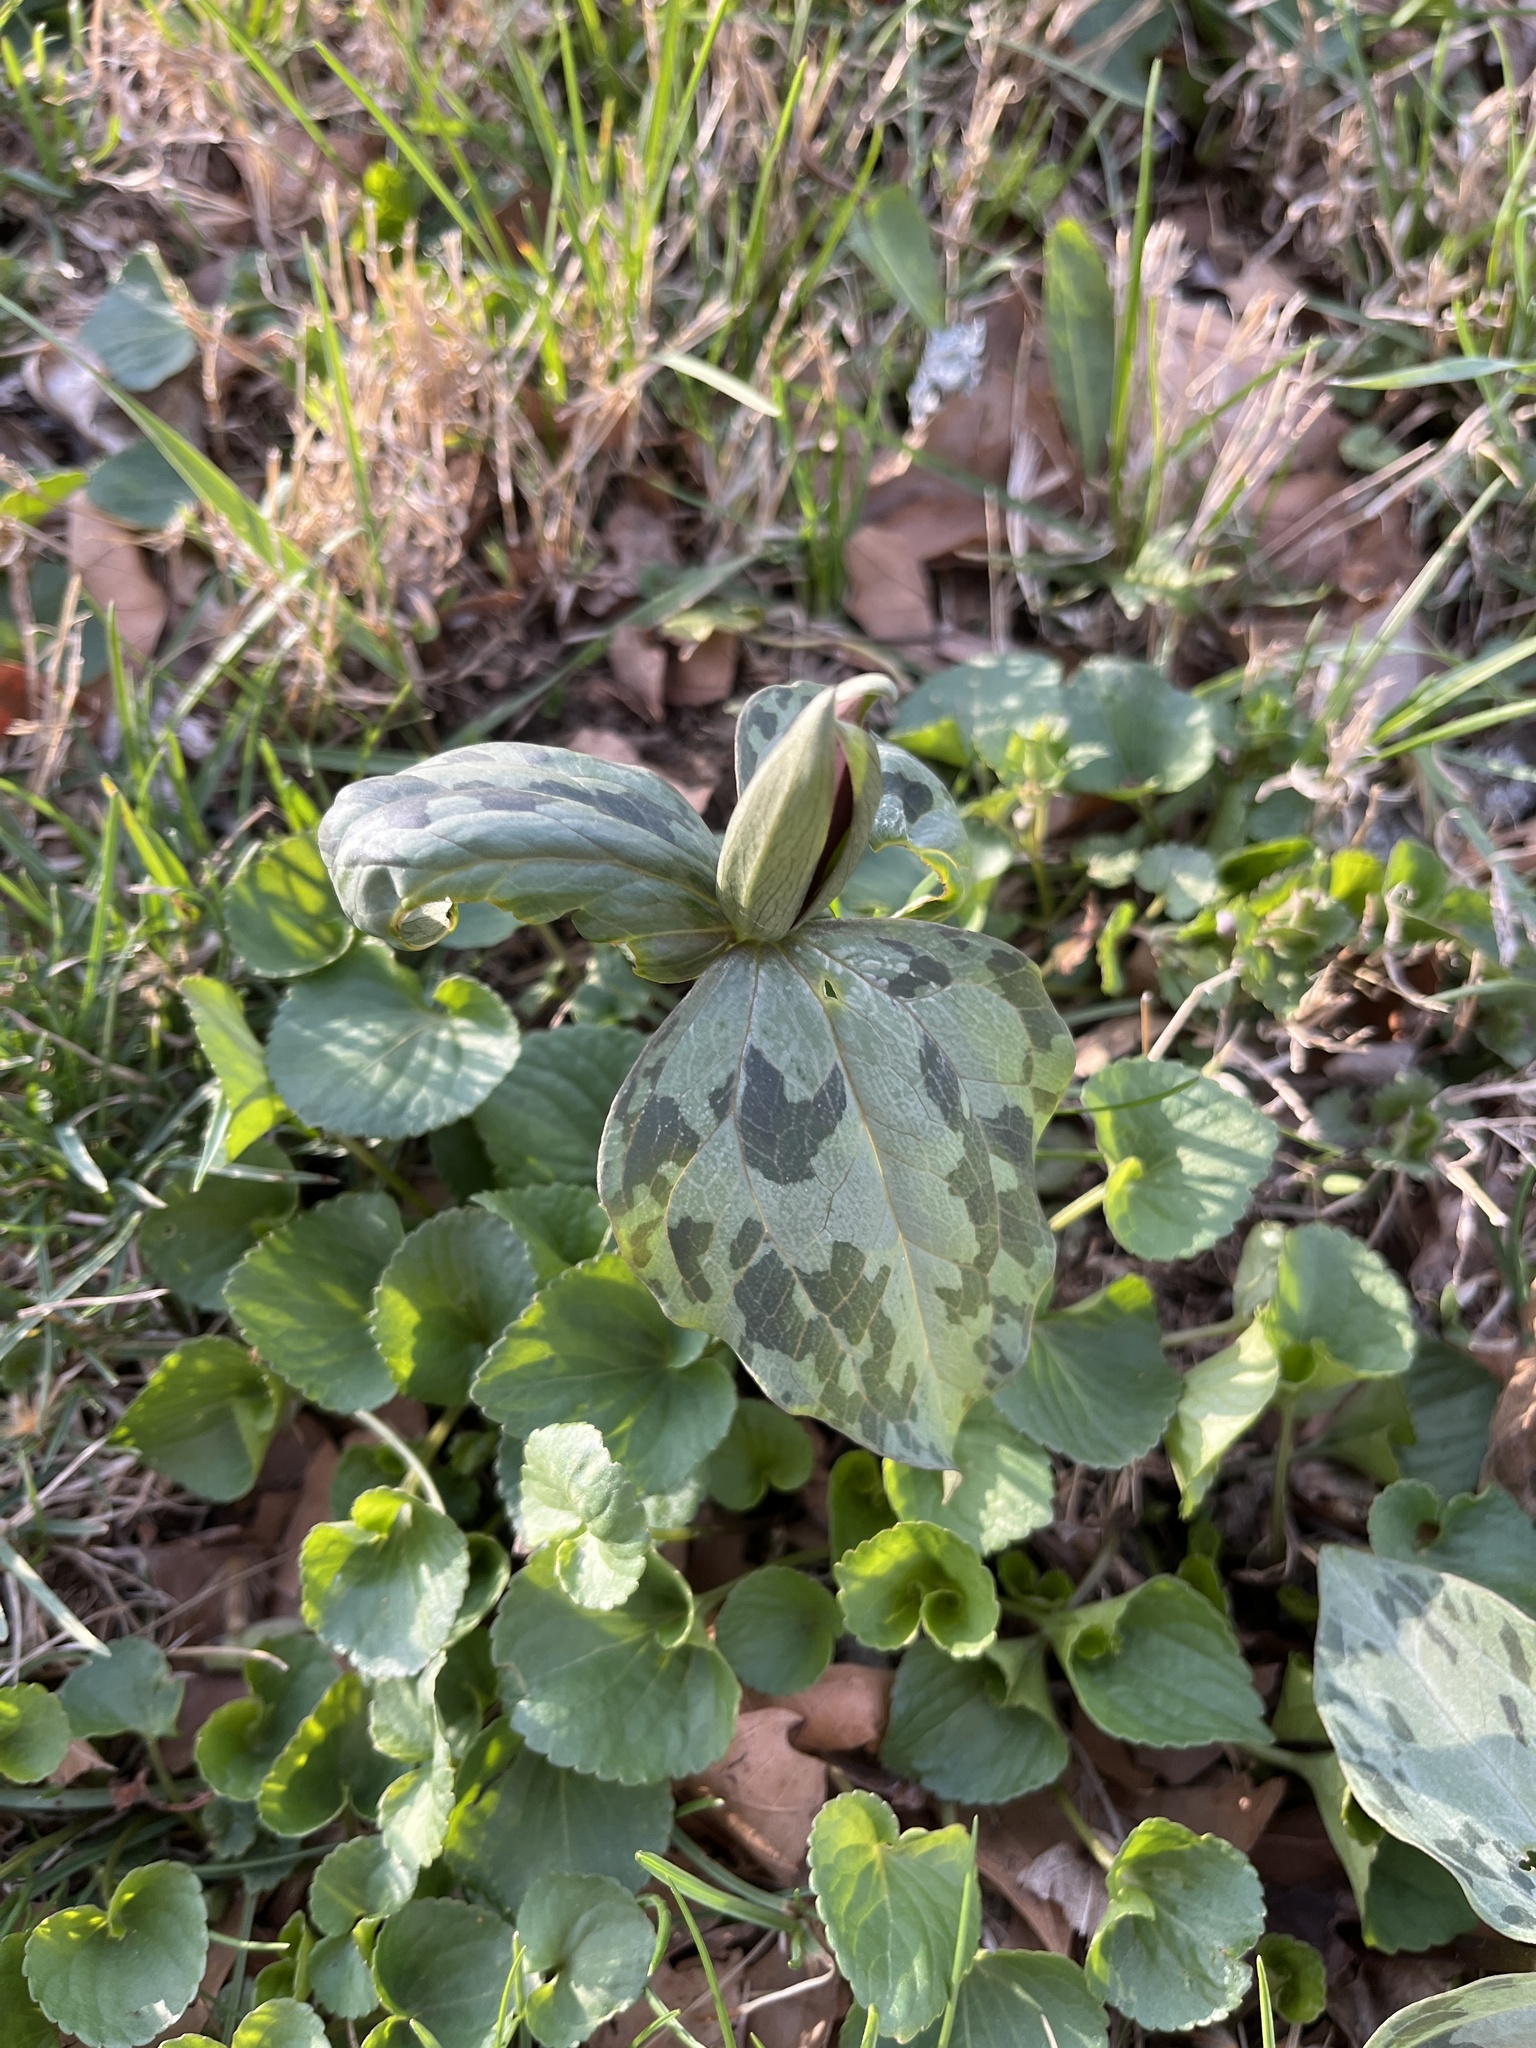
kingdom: Plantae
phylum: Tracheophyta
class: Liliopsida
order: Liliales
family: Melanthiaceae
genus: Trillium
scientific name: Trillium recurvatum
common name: Bloody butcher
